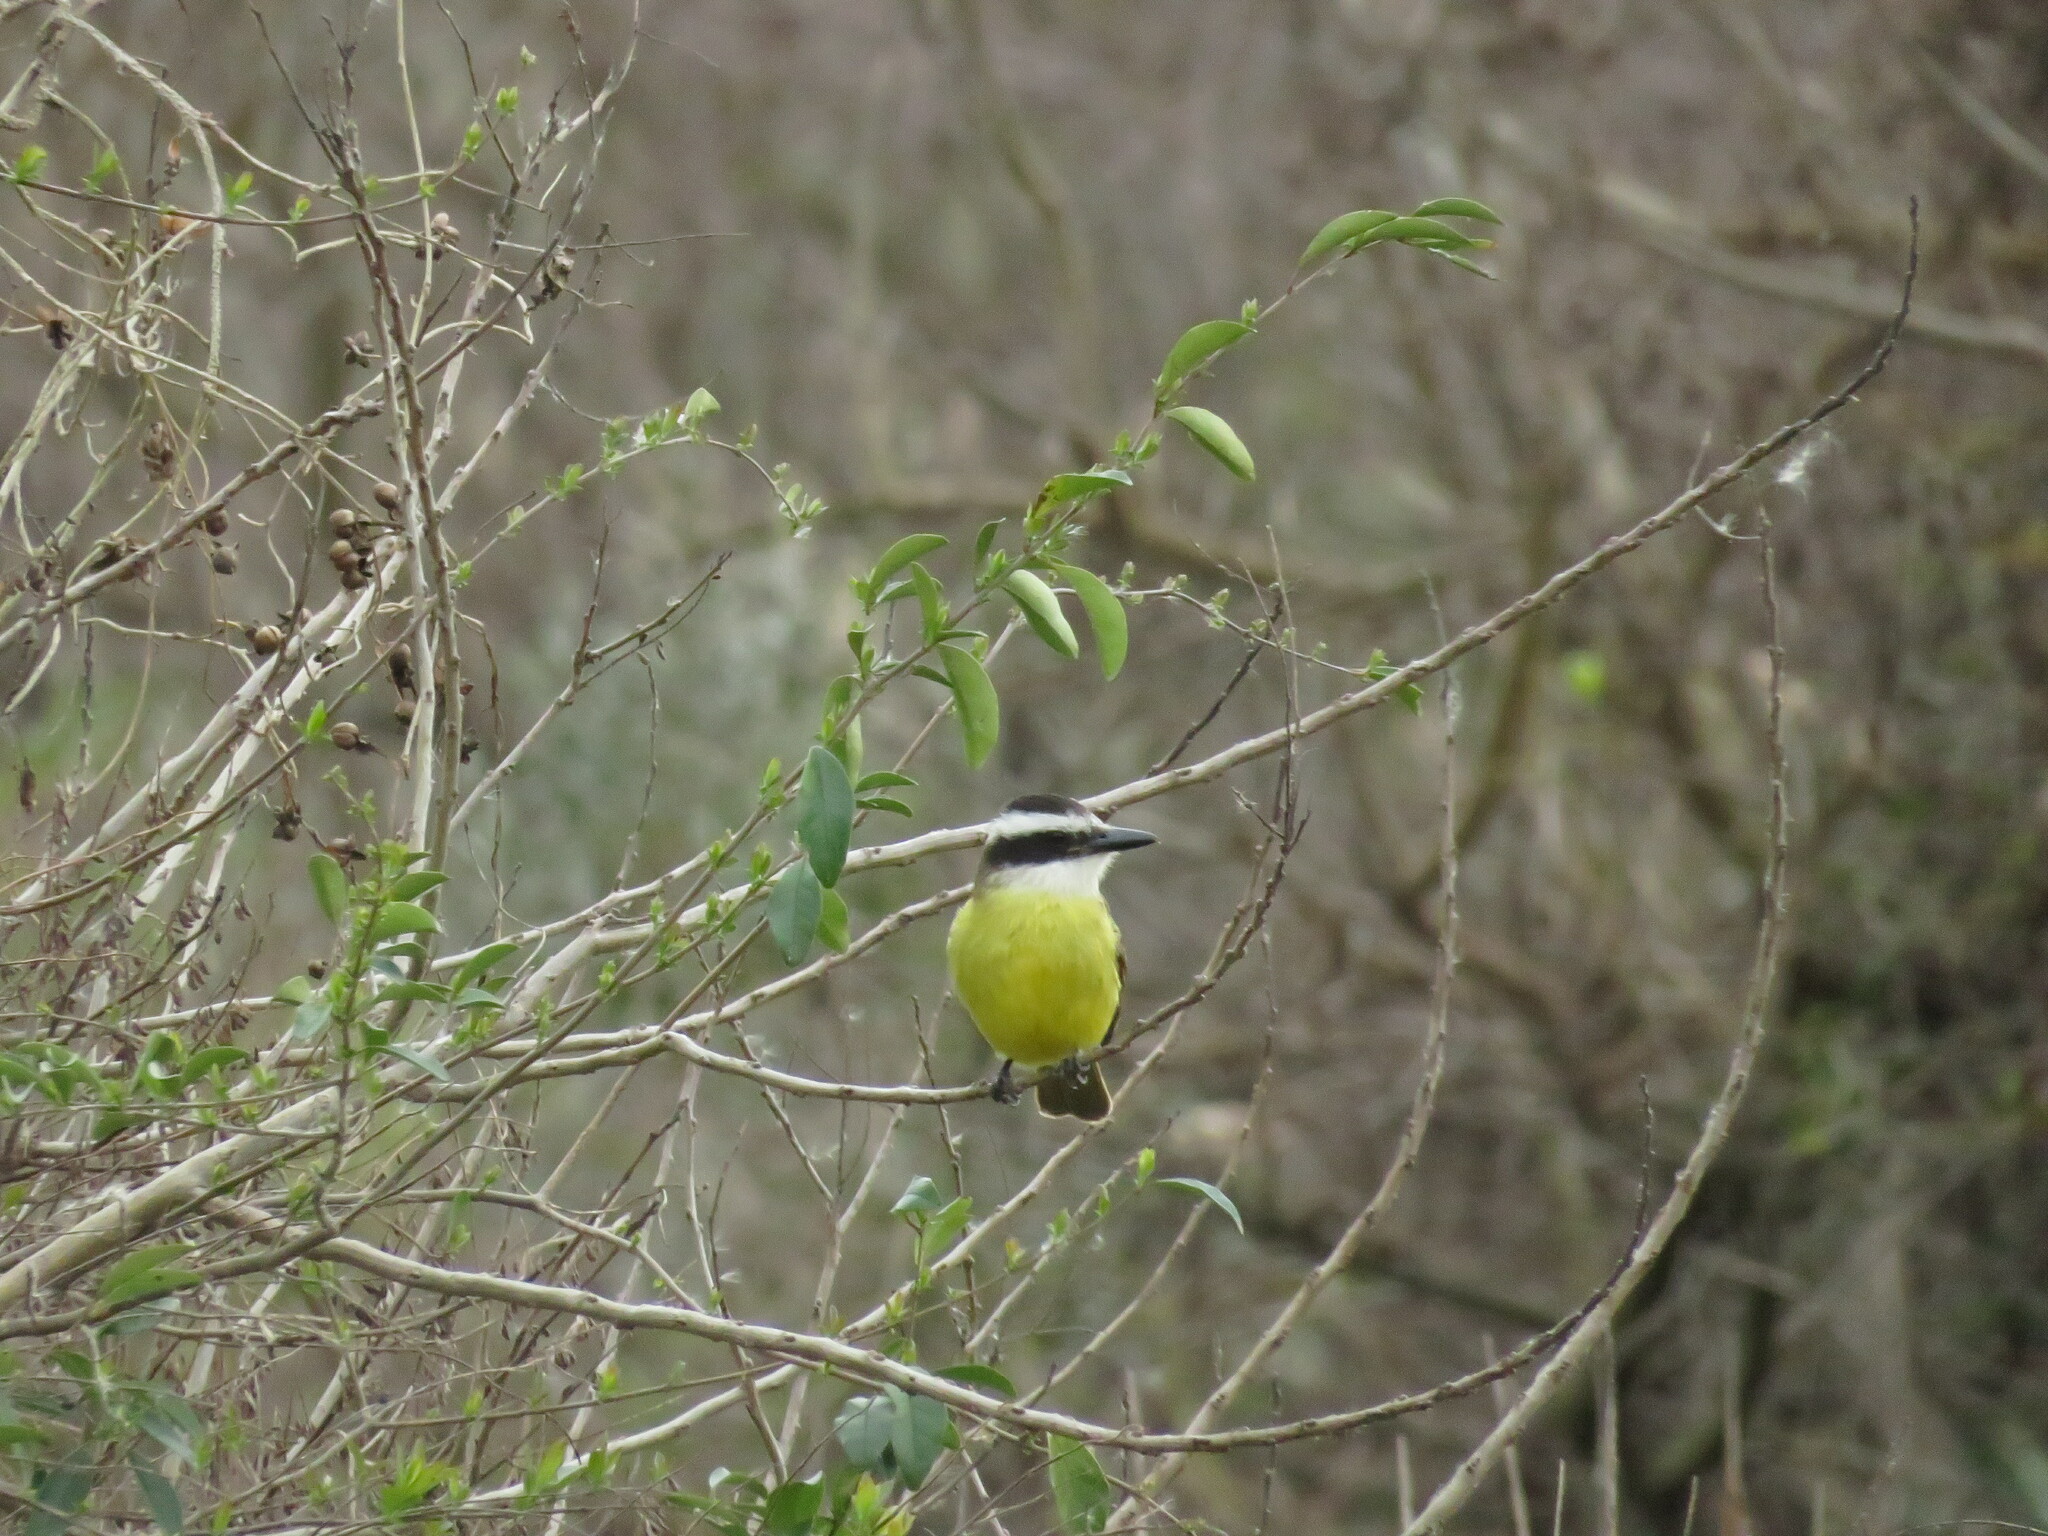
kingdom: Animalia
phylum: Chordata
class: Aves
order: Passeriformes
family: Tyrannidae
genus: Pitangus
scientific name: Pitangus sulphuratus
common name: Great kiskadee
